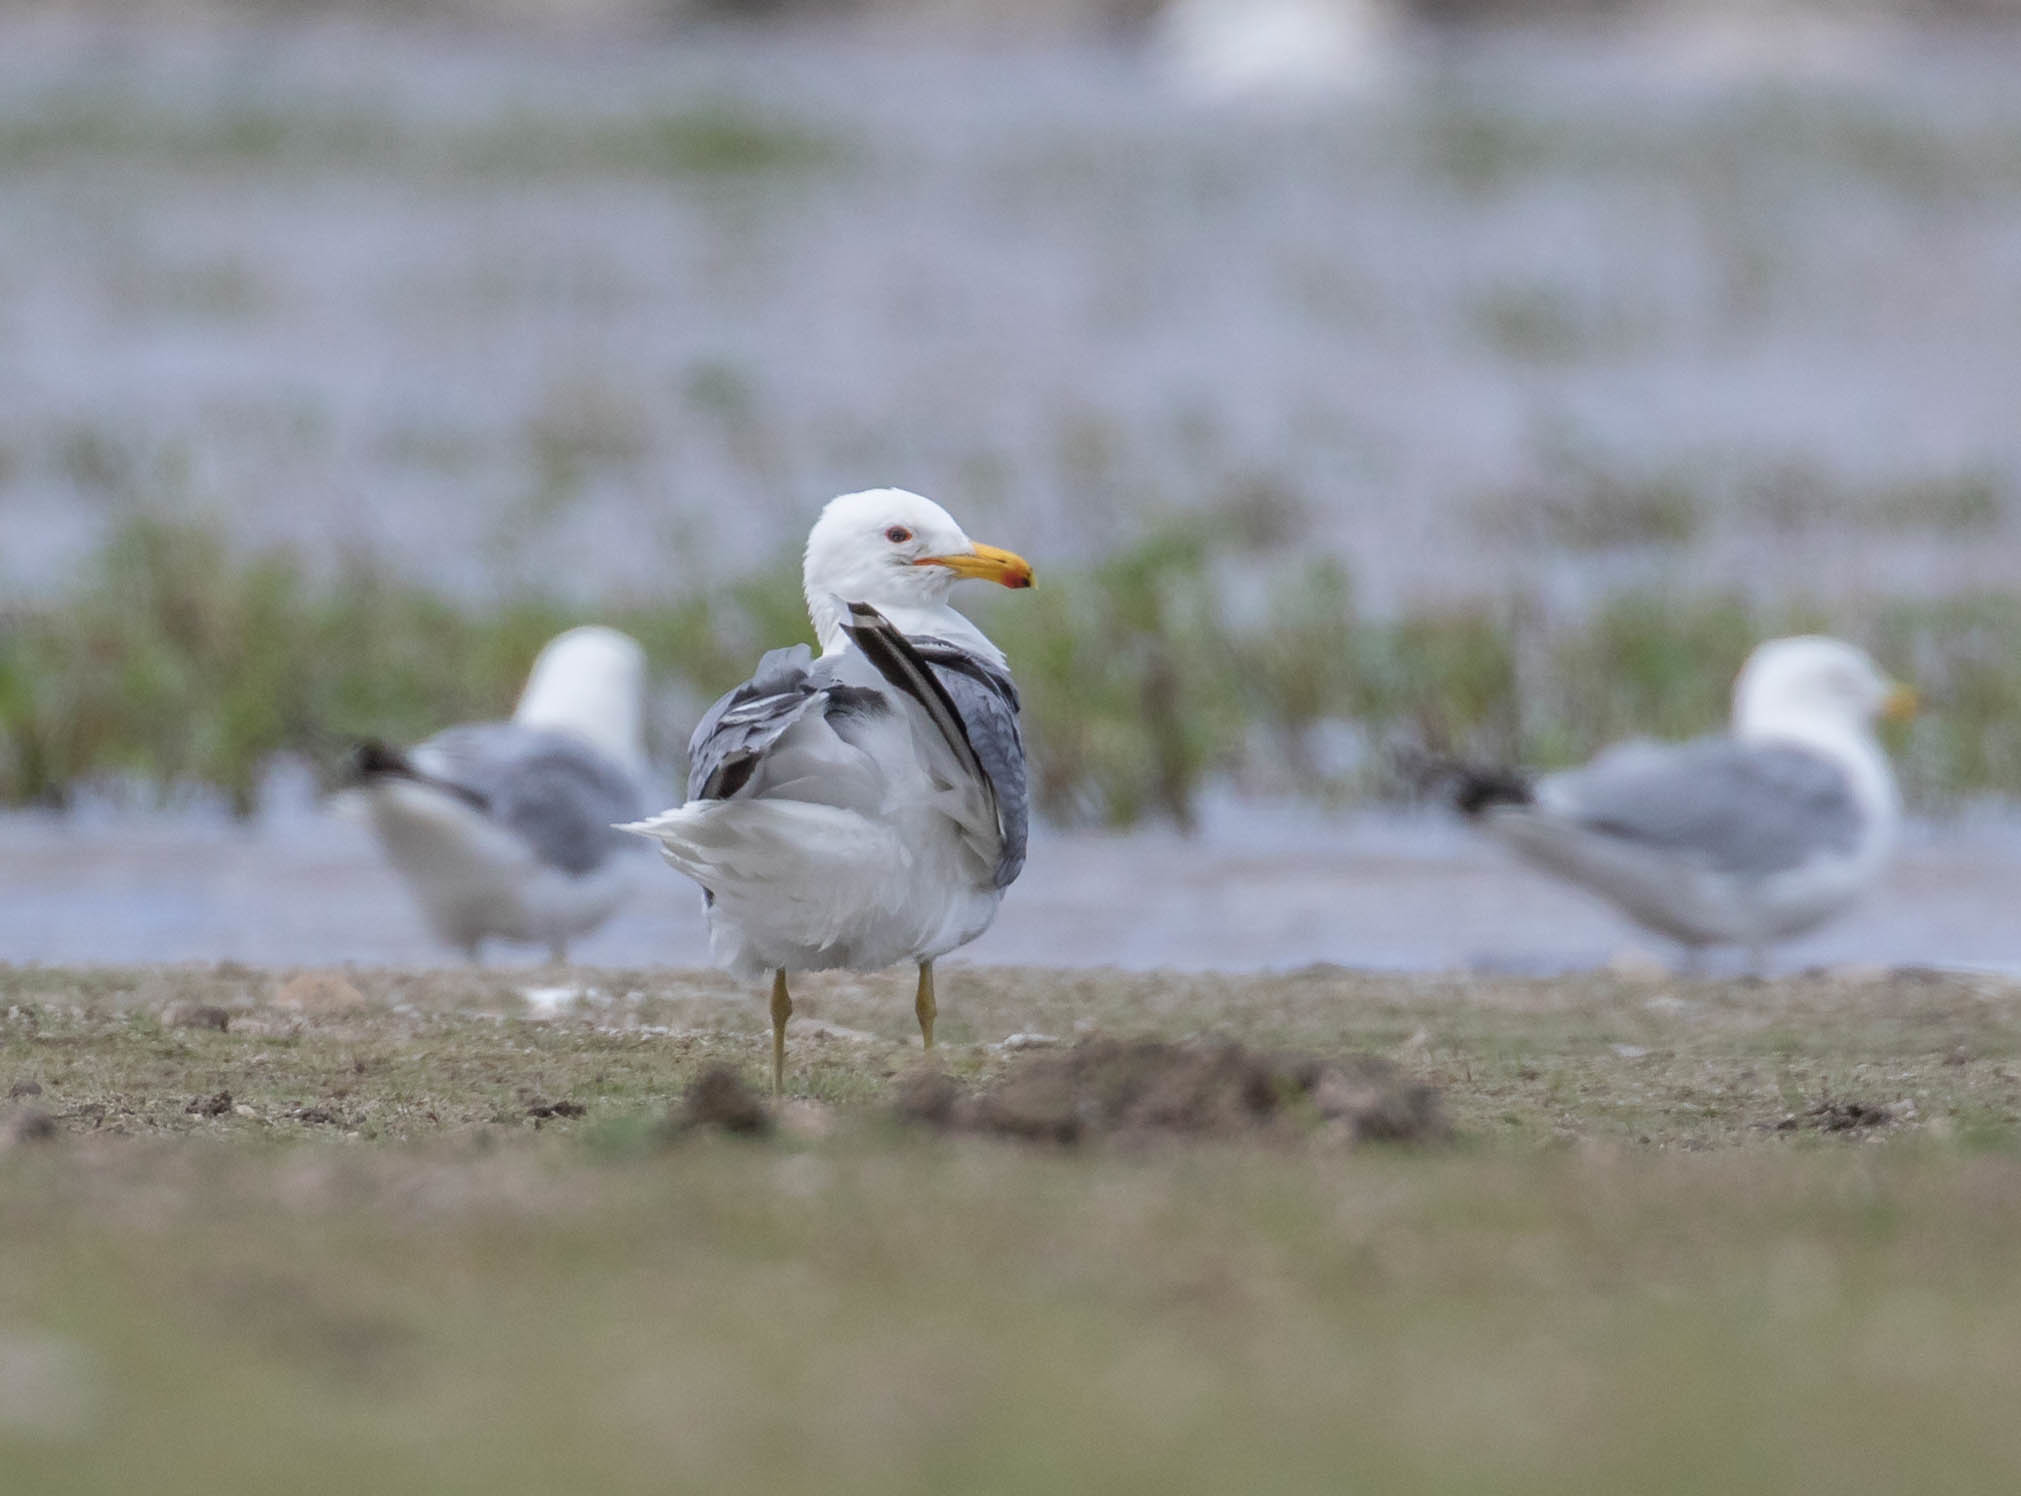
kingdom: Animalia
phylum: Chordata
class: Aves
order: Charadriiformes
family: Laridae
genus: Larus
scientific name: Larus californicus
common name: California gull
